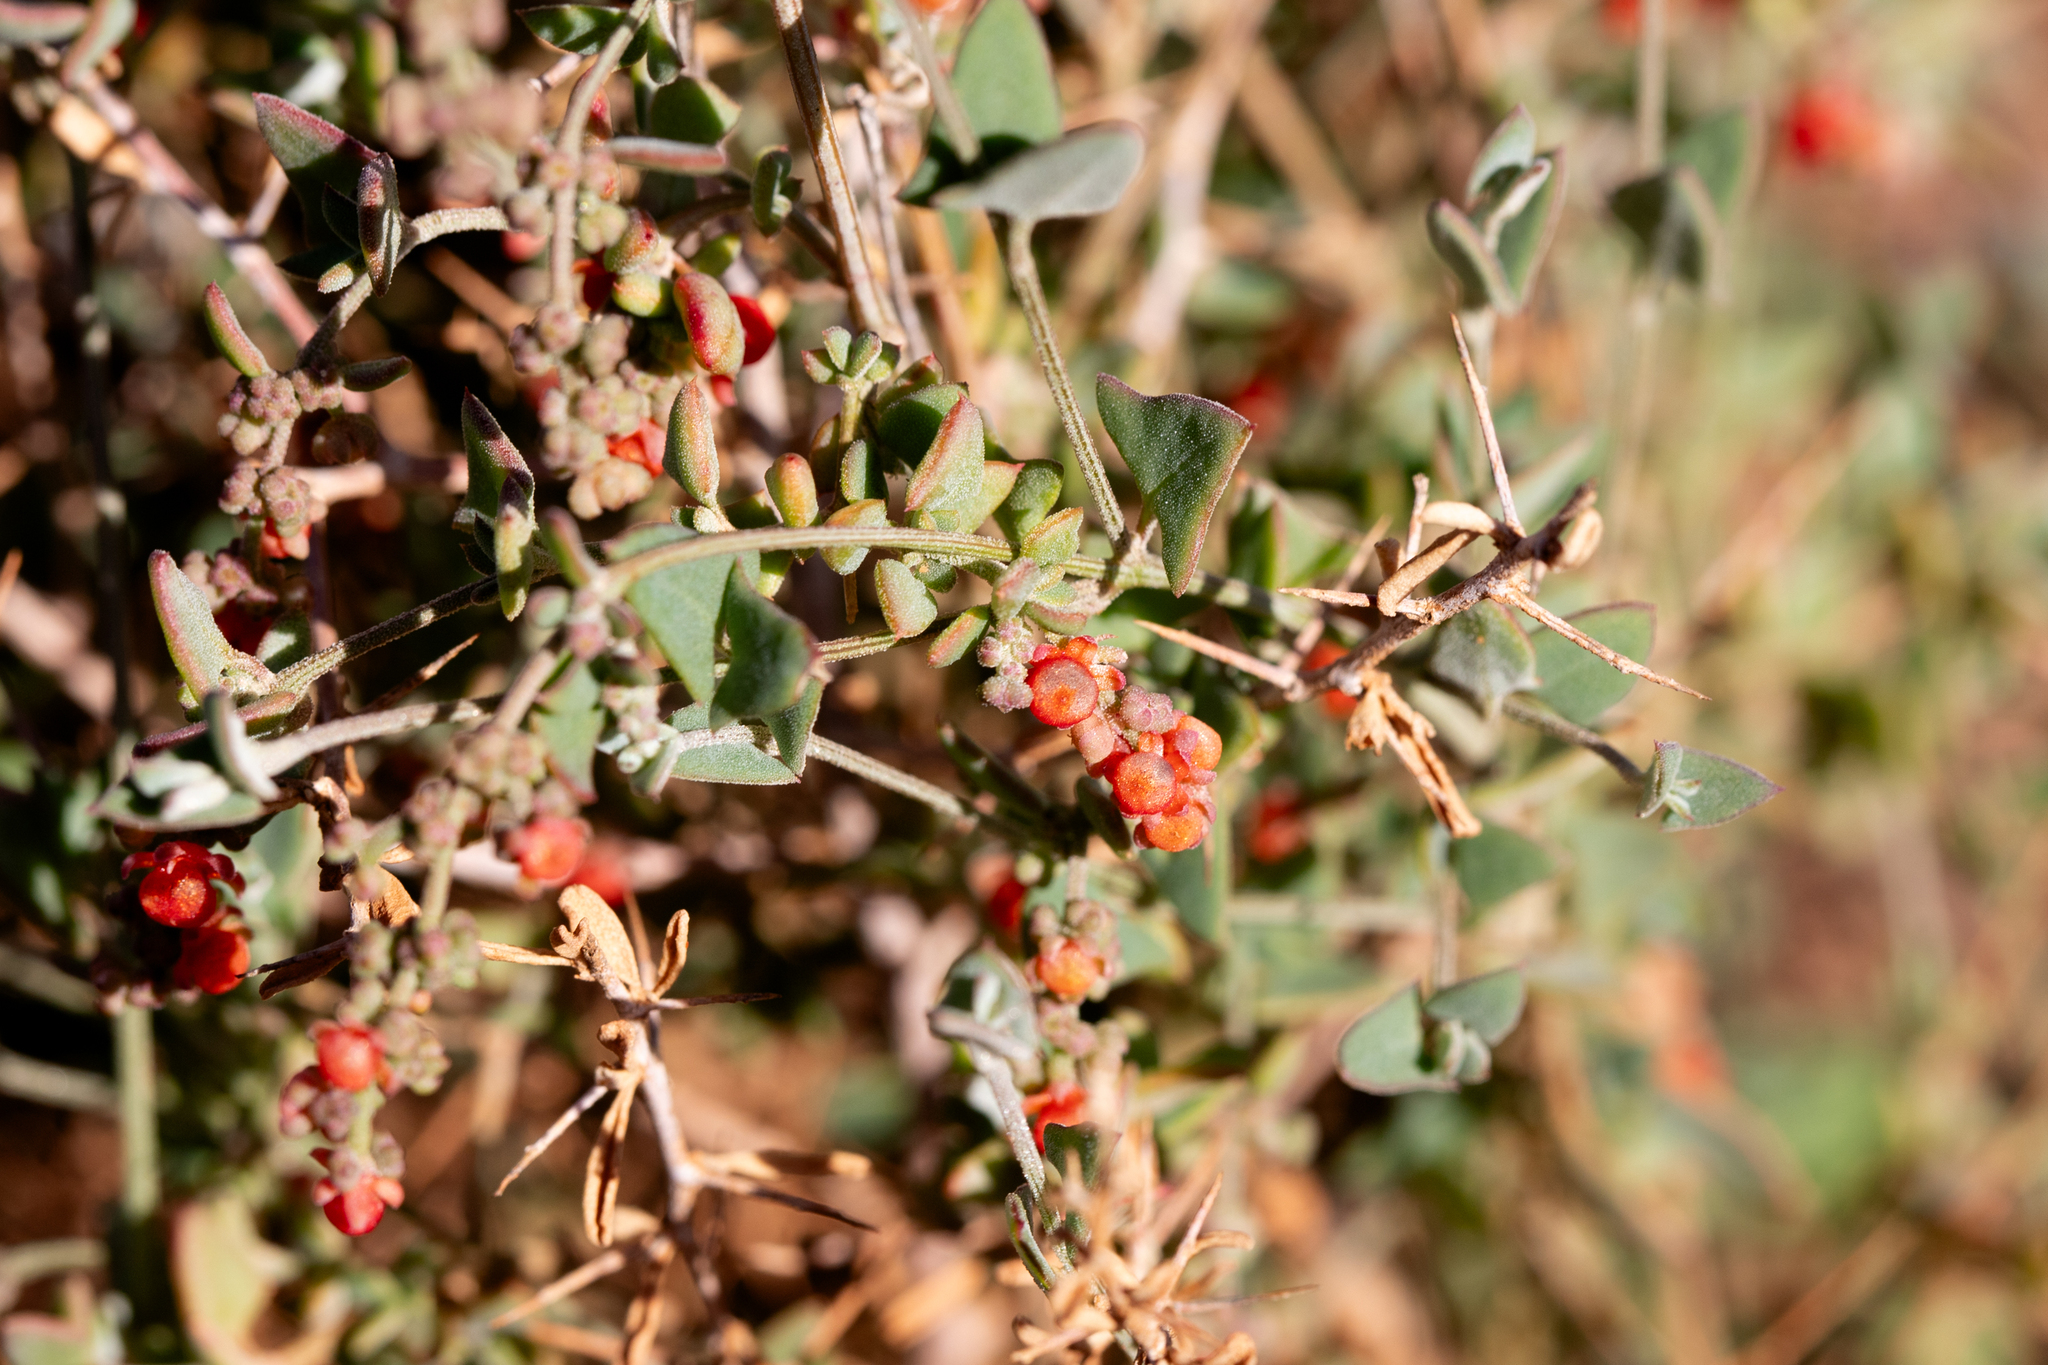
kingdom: Plantae
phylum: Tracheophyta
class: Magnoliopsida
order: Caryophyllales
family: Amaranthaceae
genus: Chenopodium
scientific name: Chenopodium nutans
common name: Climbing-saltbush
